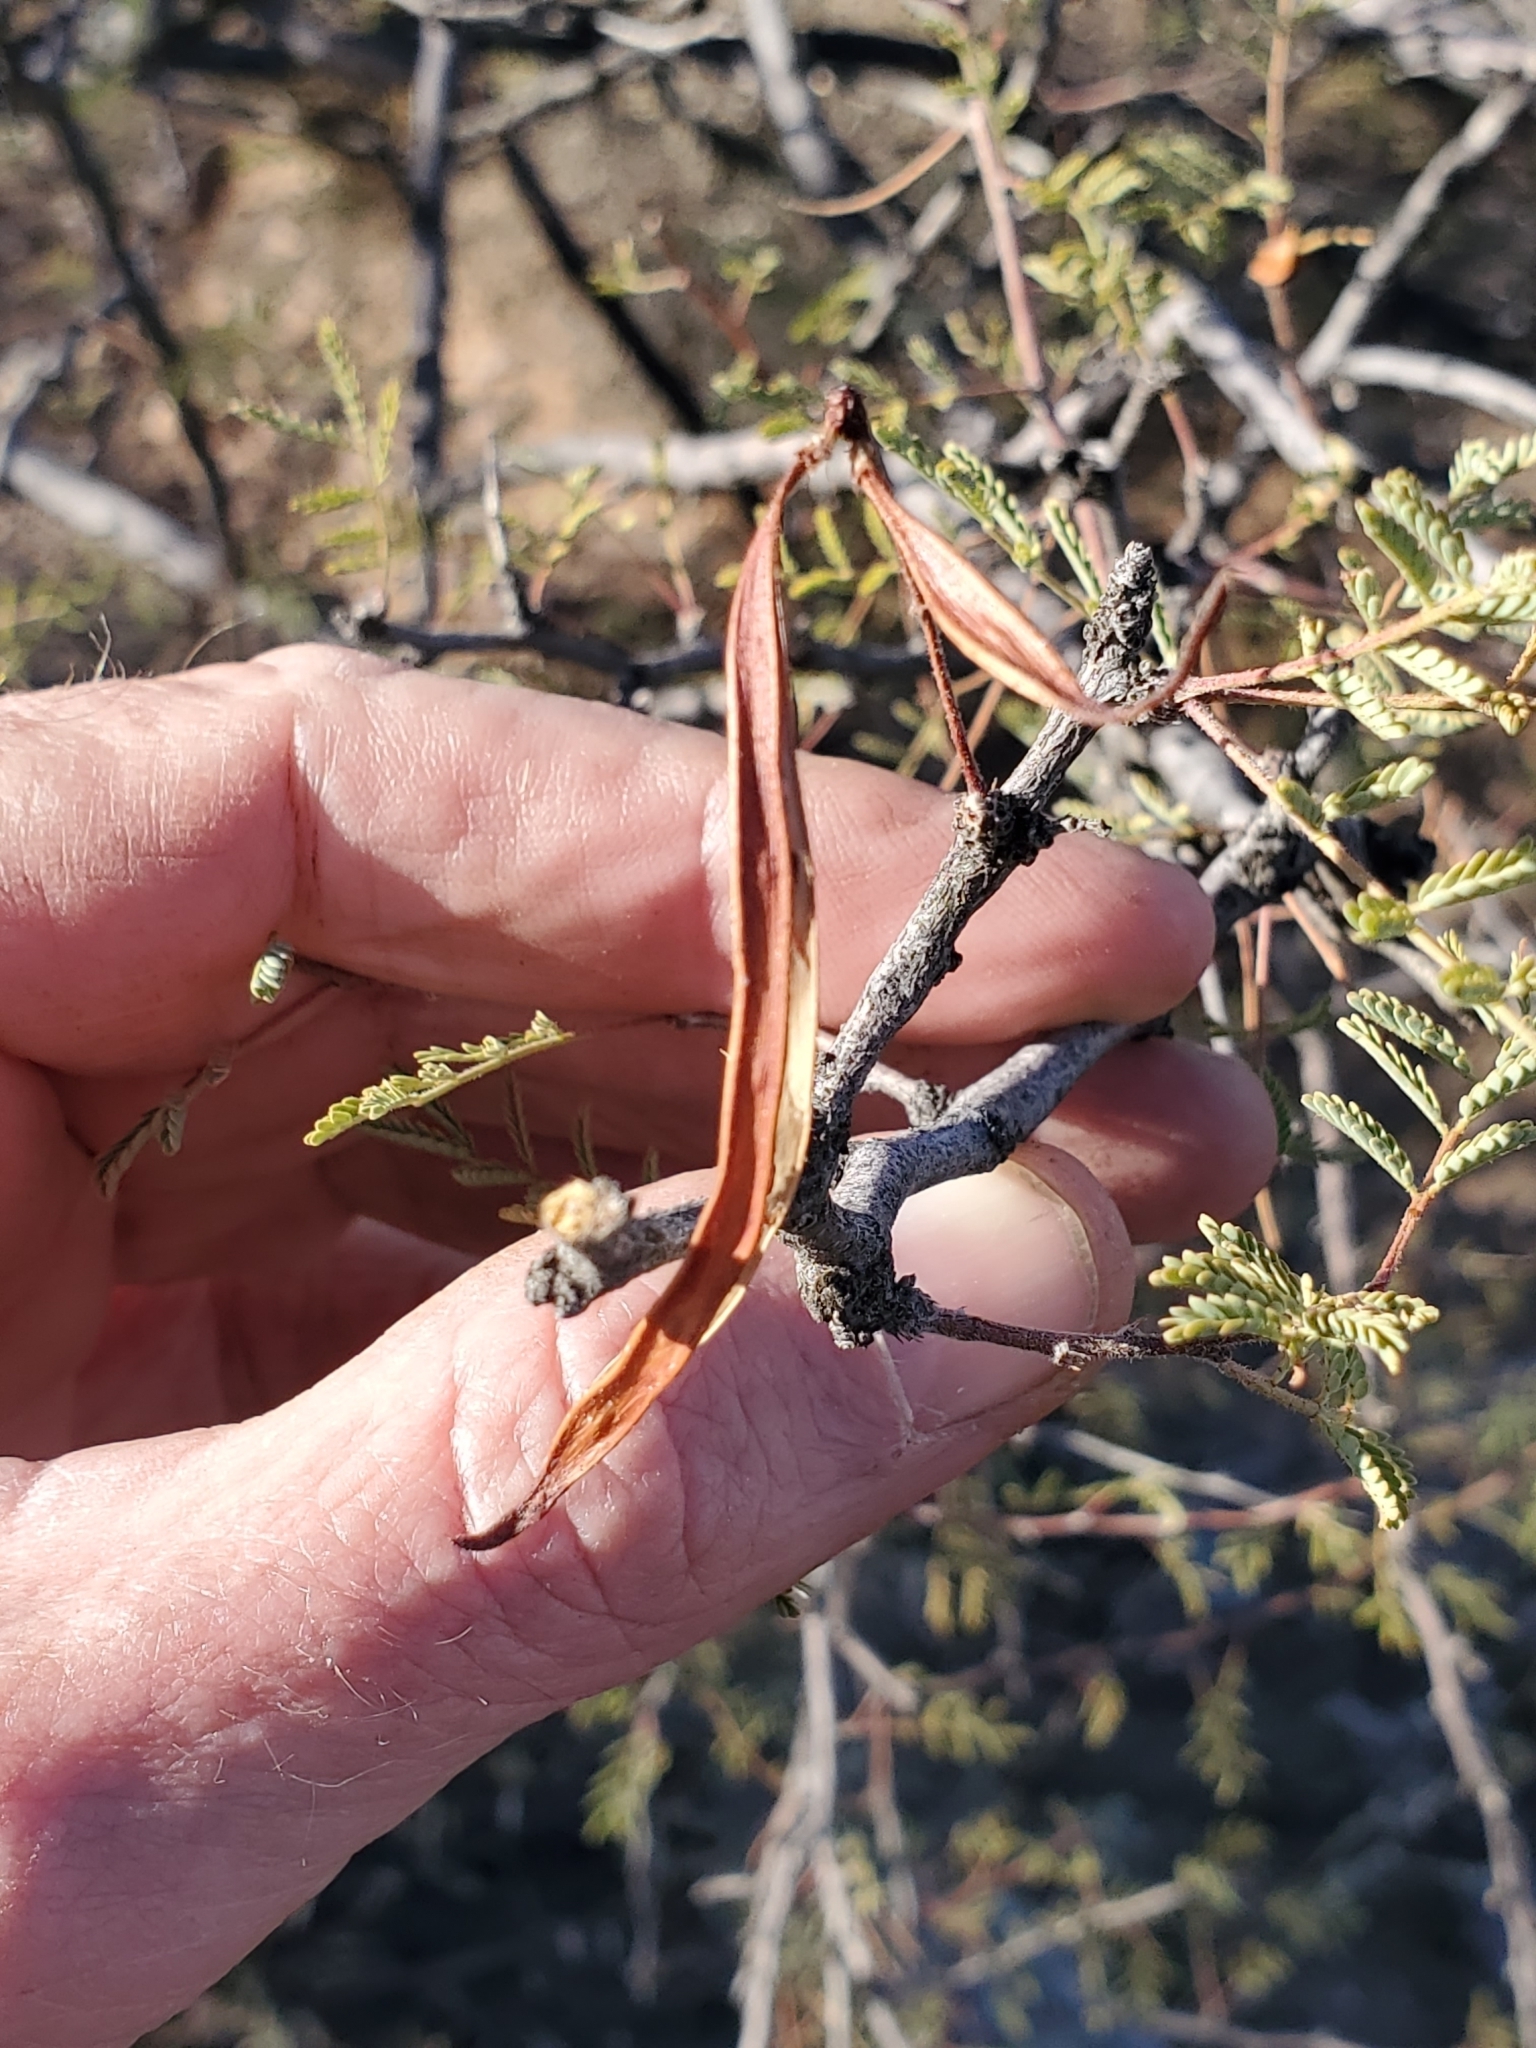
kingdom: Plantae
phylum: Tracheophyta
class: Magnoliopsida
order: Santalales
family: Viscaceae
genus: Phoradendron
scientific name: Phoradendron californicum
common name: Acacia mistletoe
